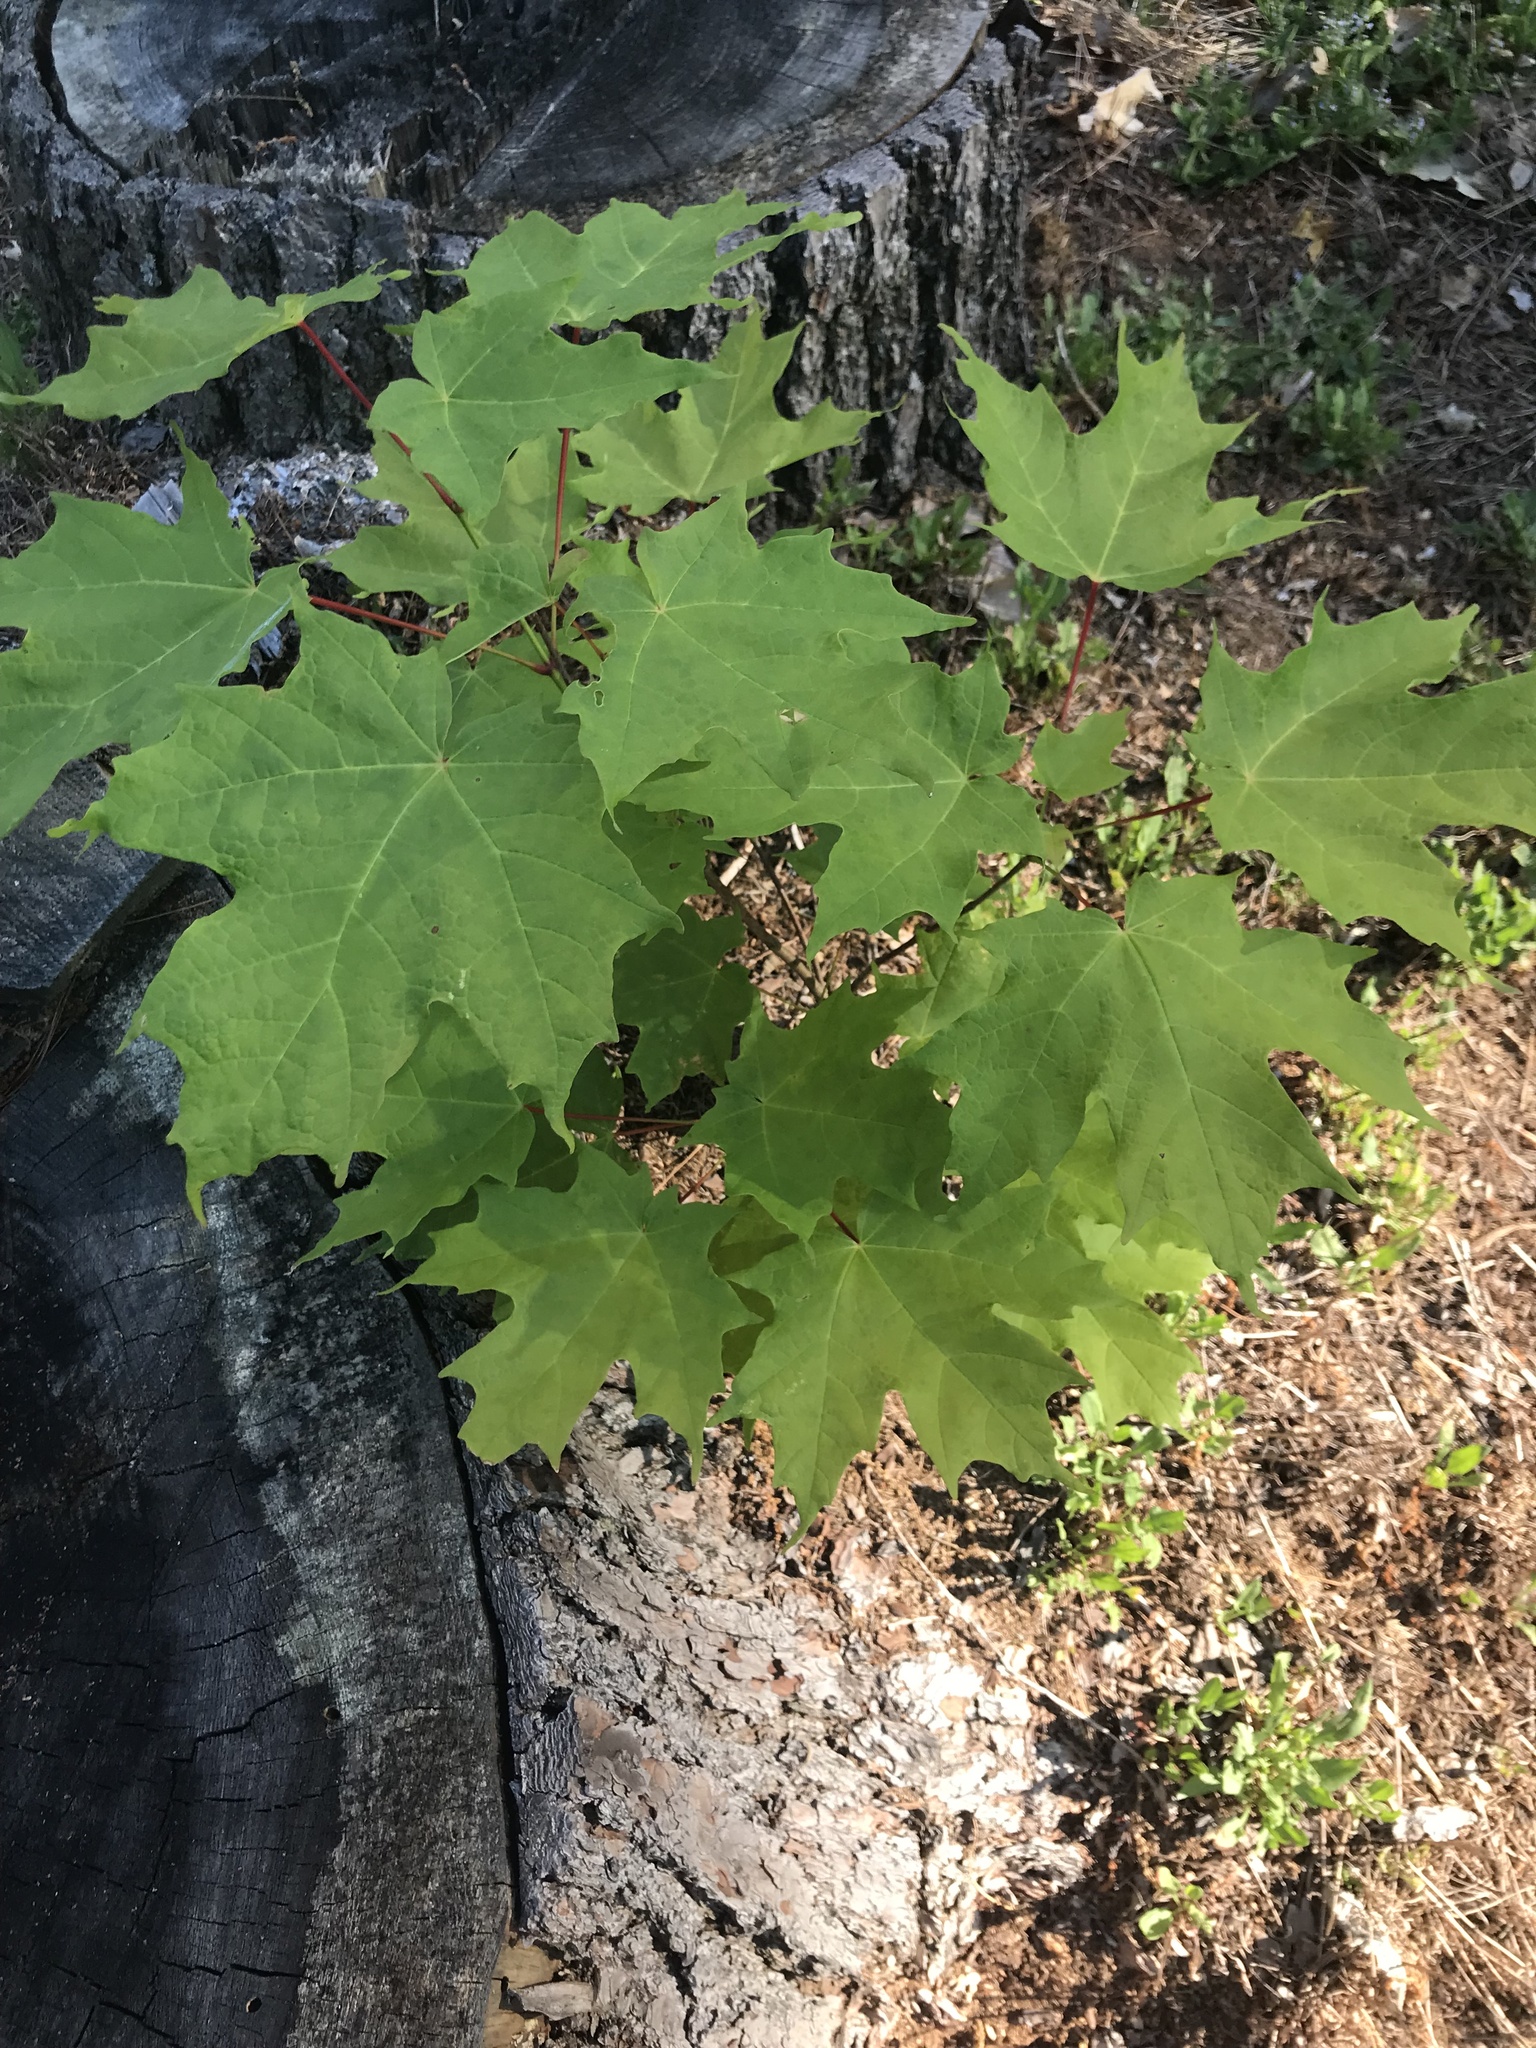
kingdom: Plantae
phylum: Tracheophyta
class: Magnoliopsida
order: Sapindales
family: Sapindaceae
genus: Acer
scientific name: Acer rubrum
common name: Red maple
